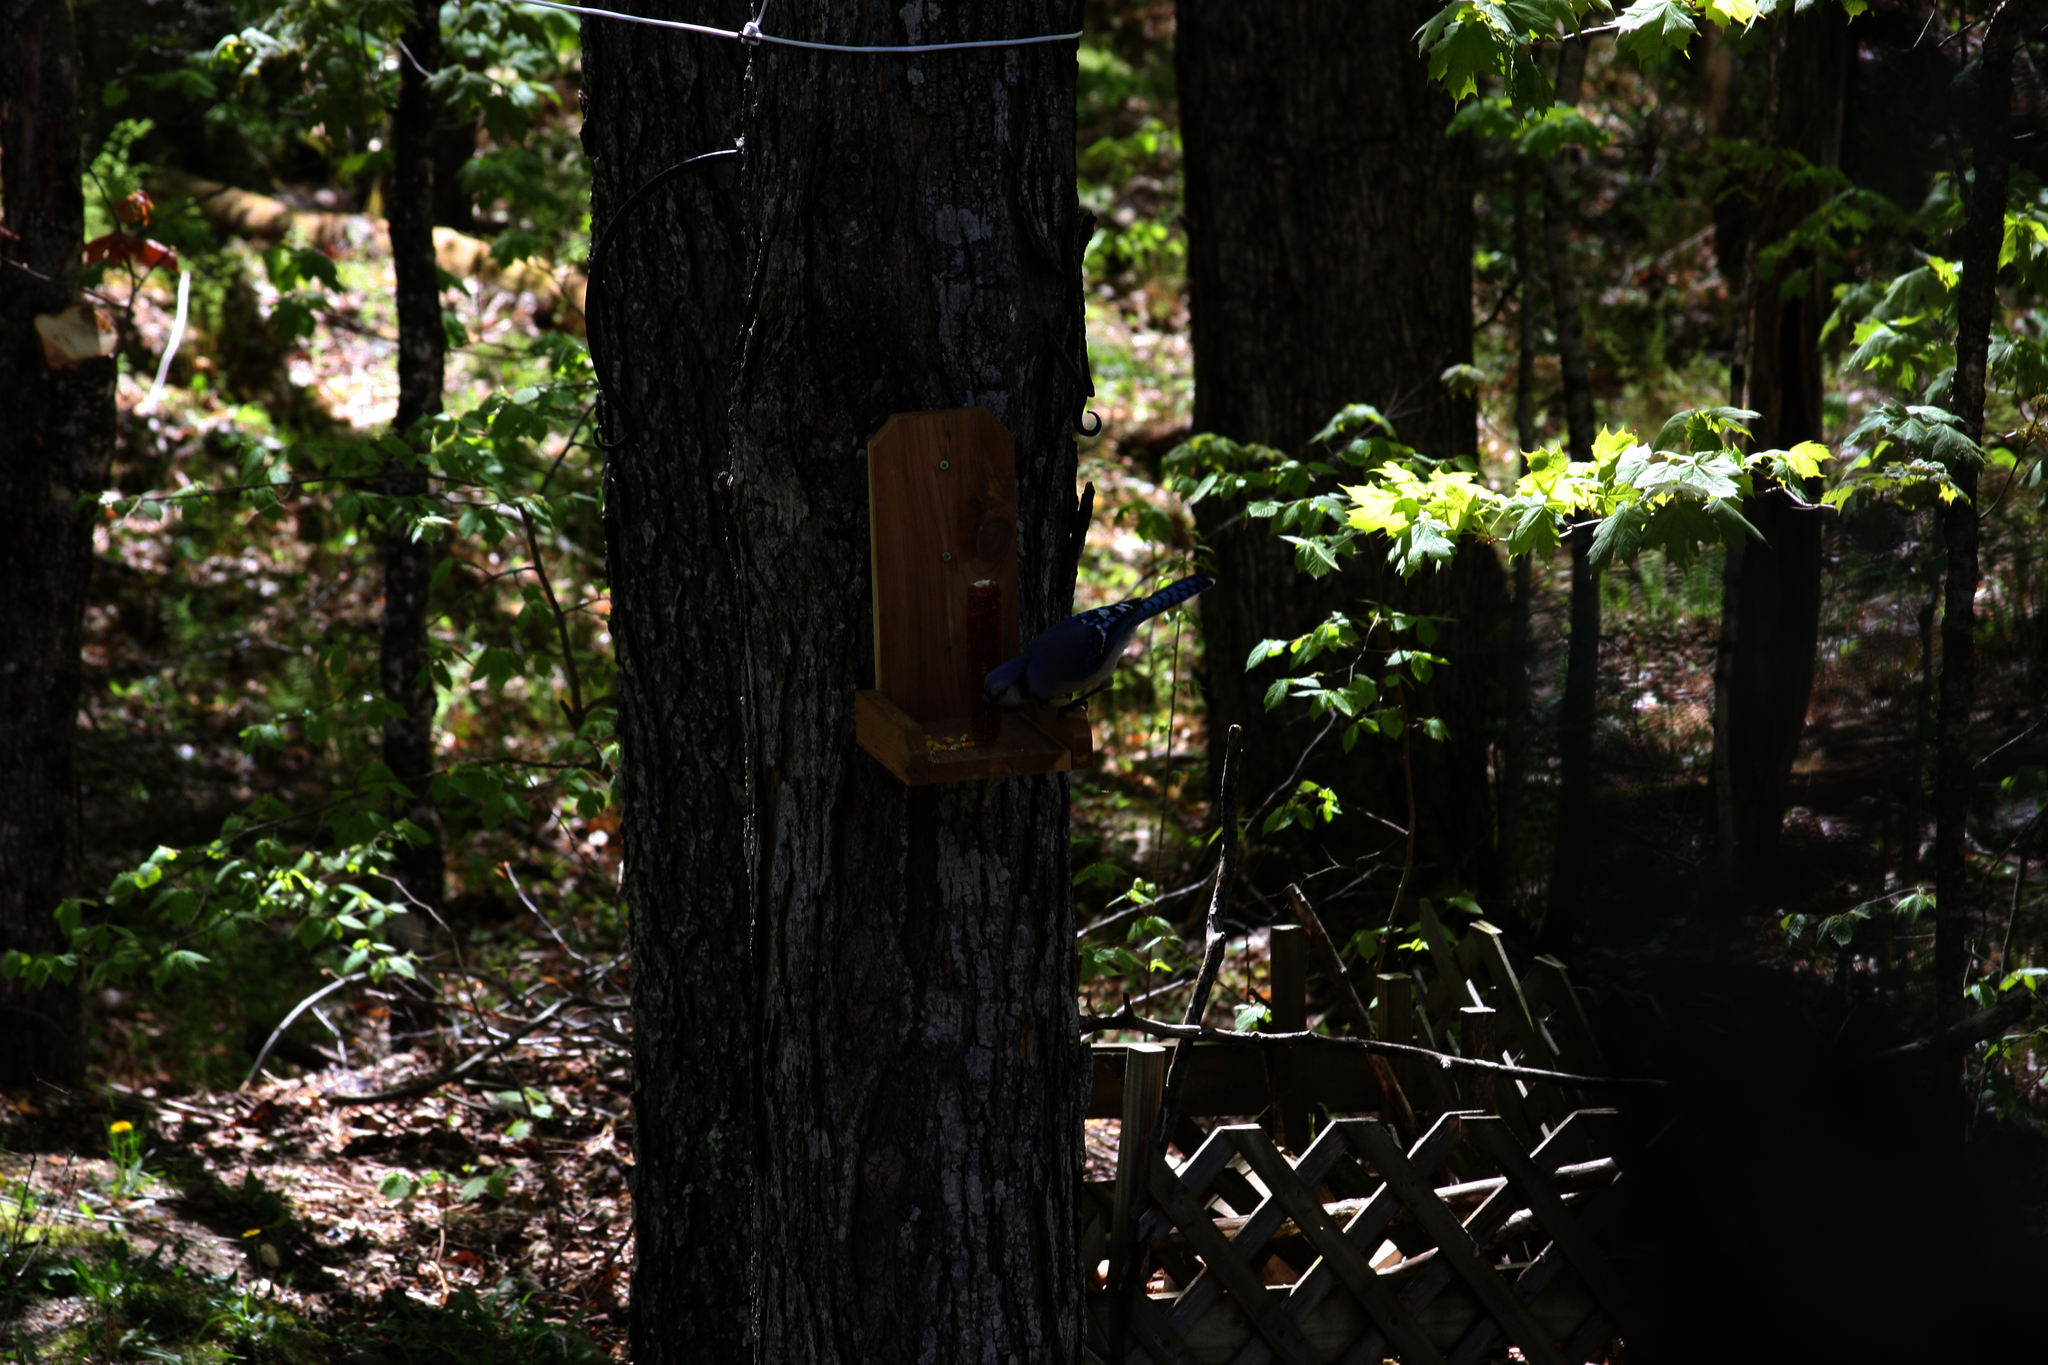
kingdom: Animalia
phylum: Chordata
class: Aves
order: Passeriformes
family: Corvidae
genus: Cyanocitta
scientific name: Cyanocitta cristata
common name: Blue jay
